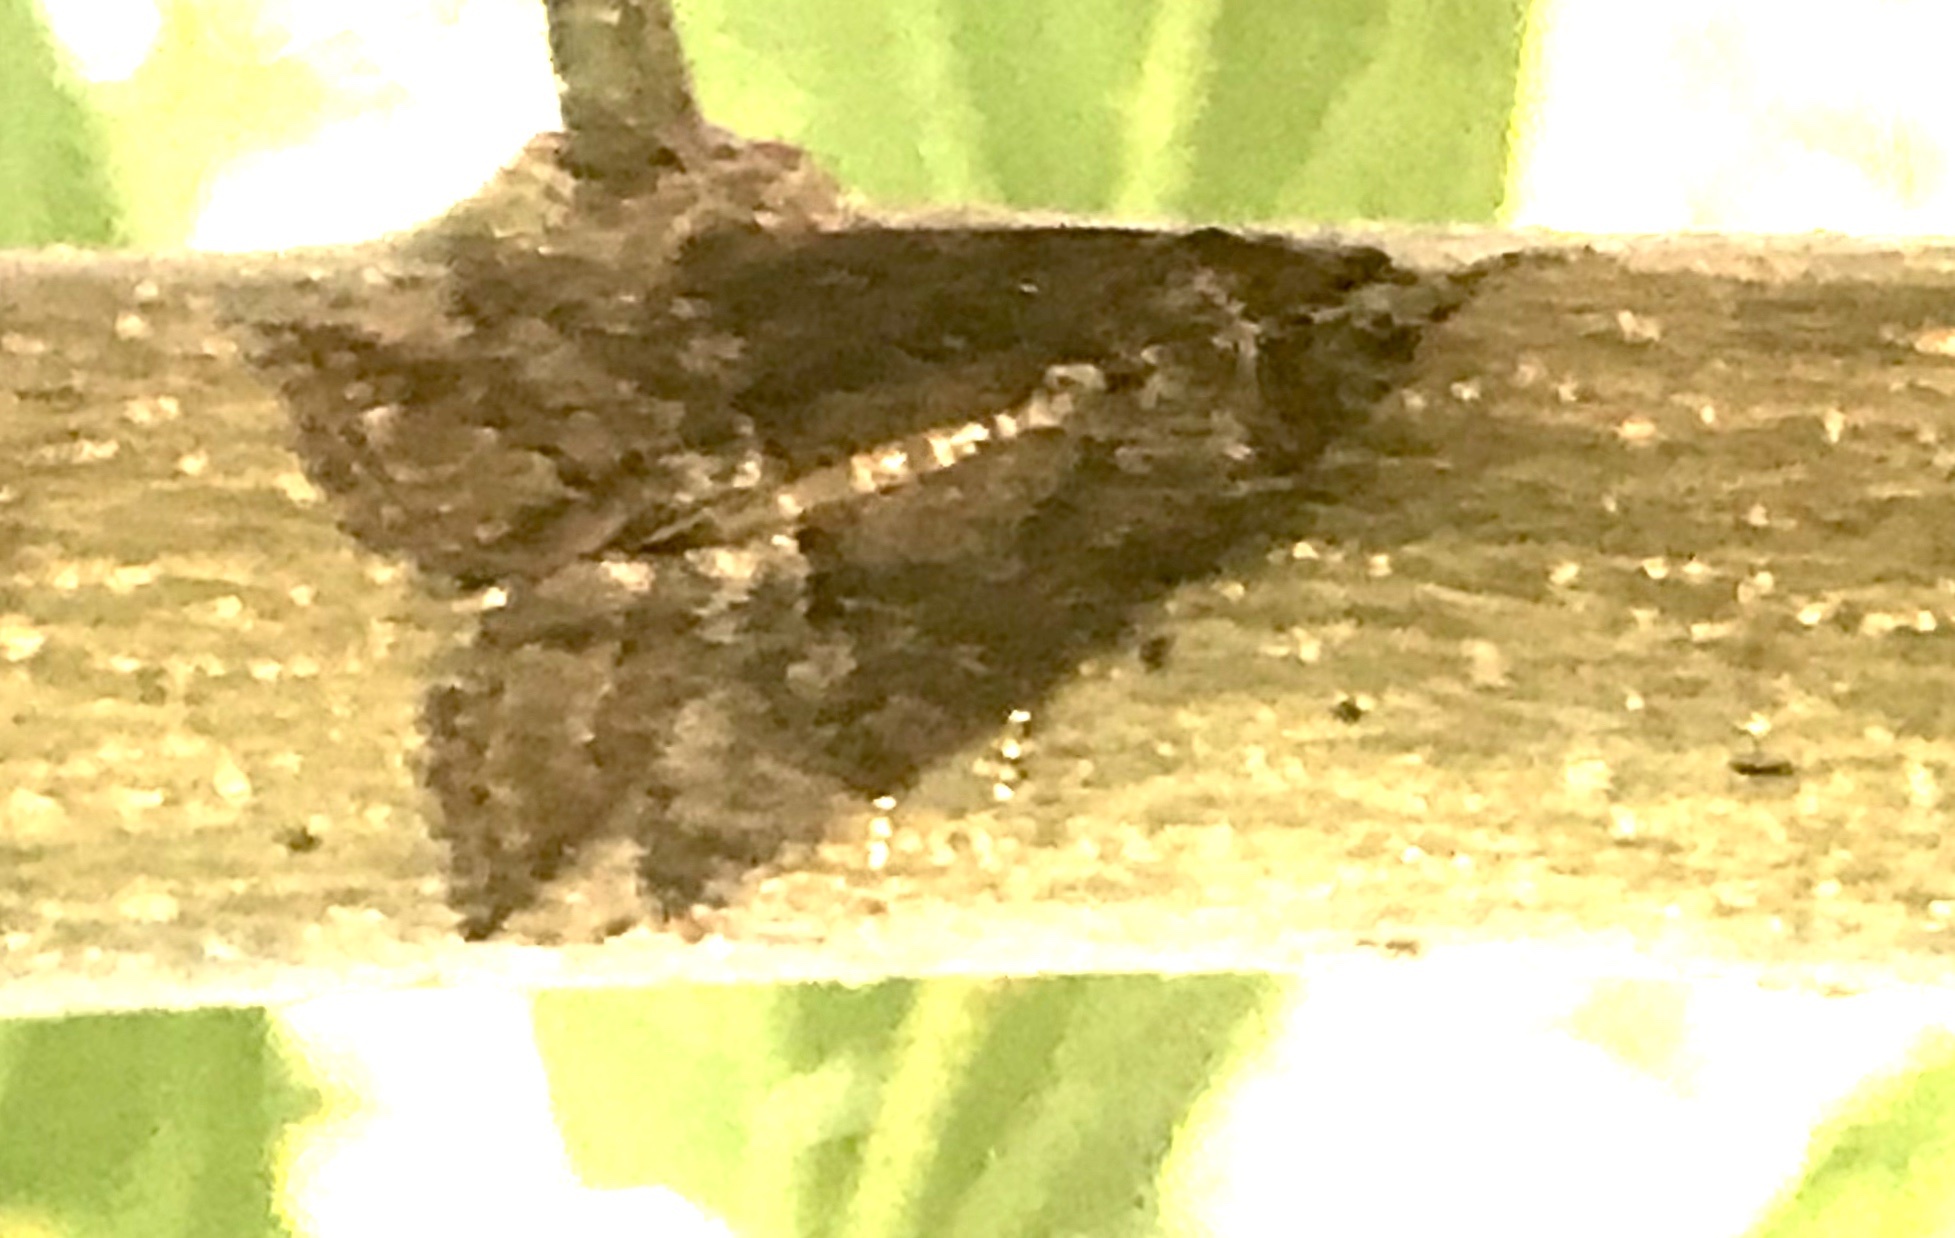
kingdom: Animalia
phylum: Arthropoda
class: Insecta
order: Lepidoptera
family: Erebidae
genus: Hypena
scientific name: Hypena scabra
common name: Green cloverworm
